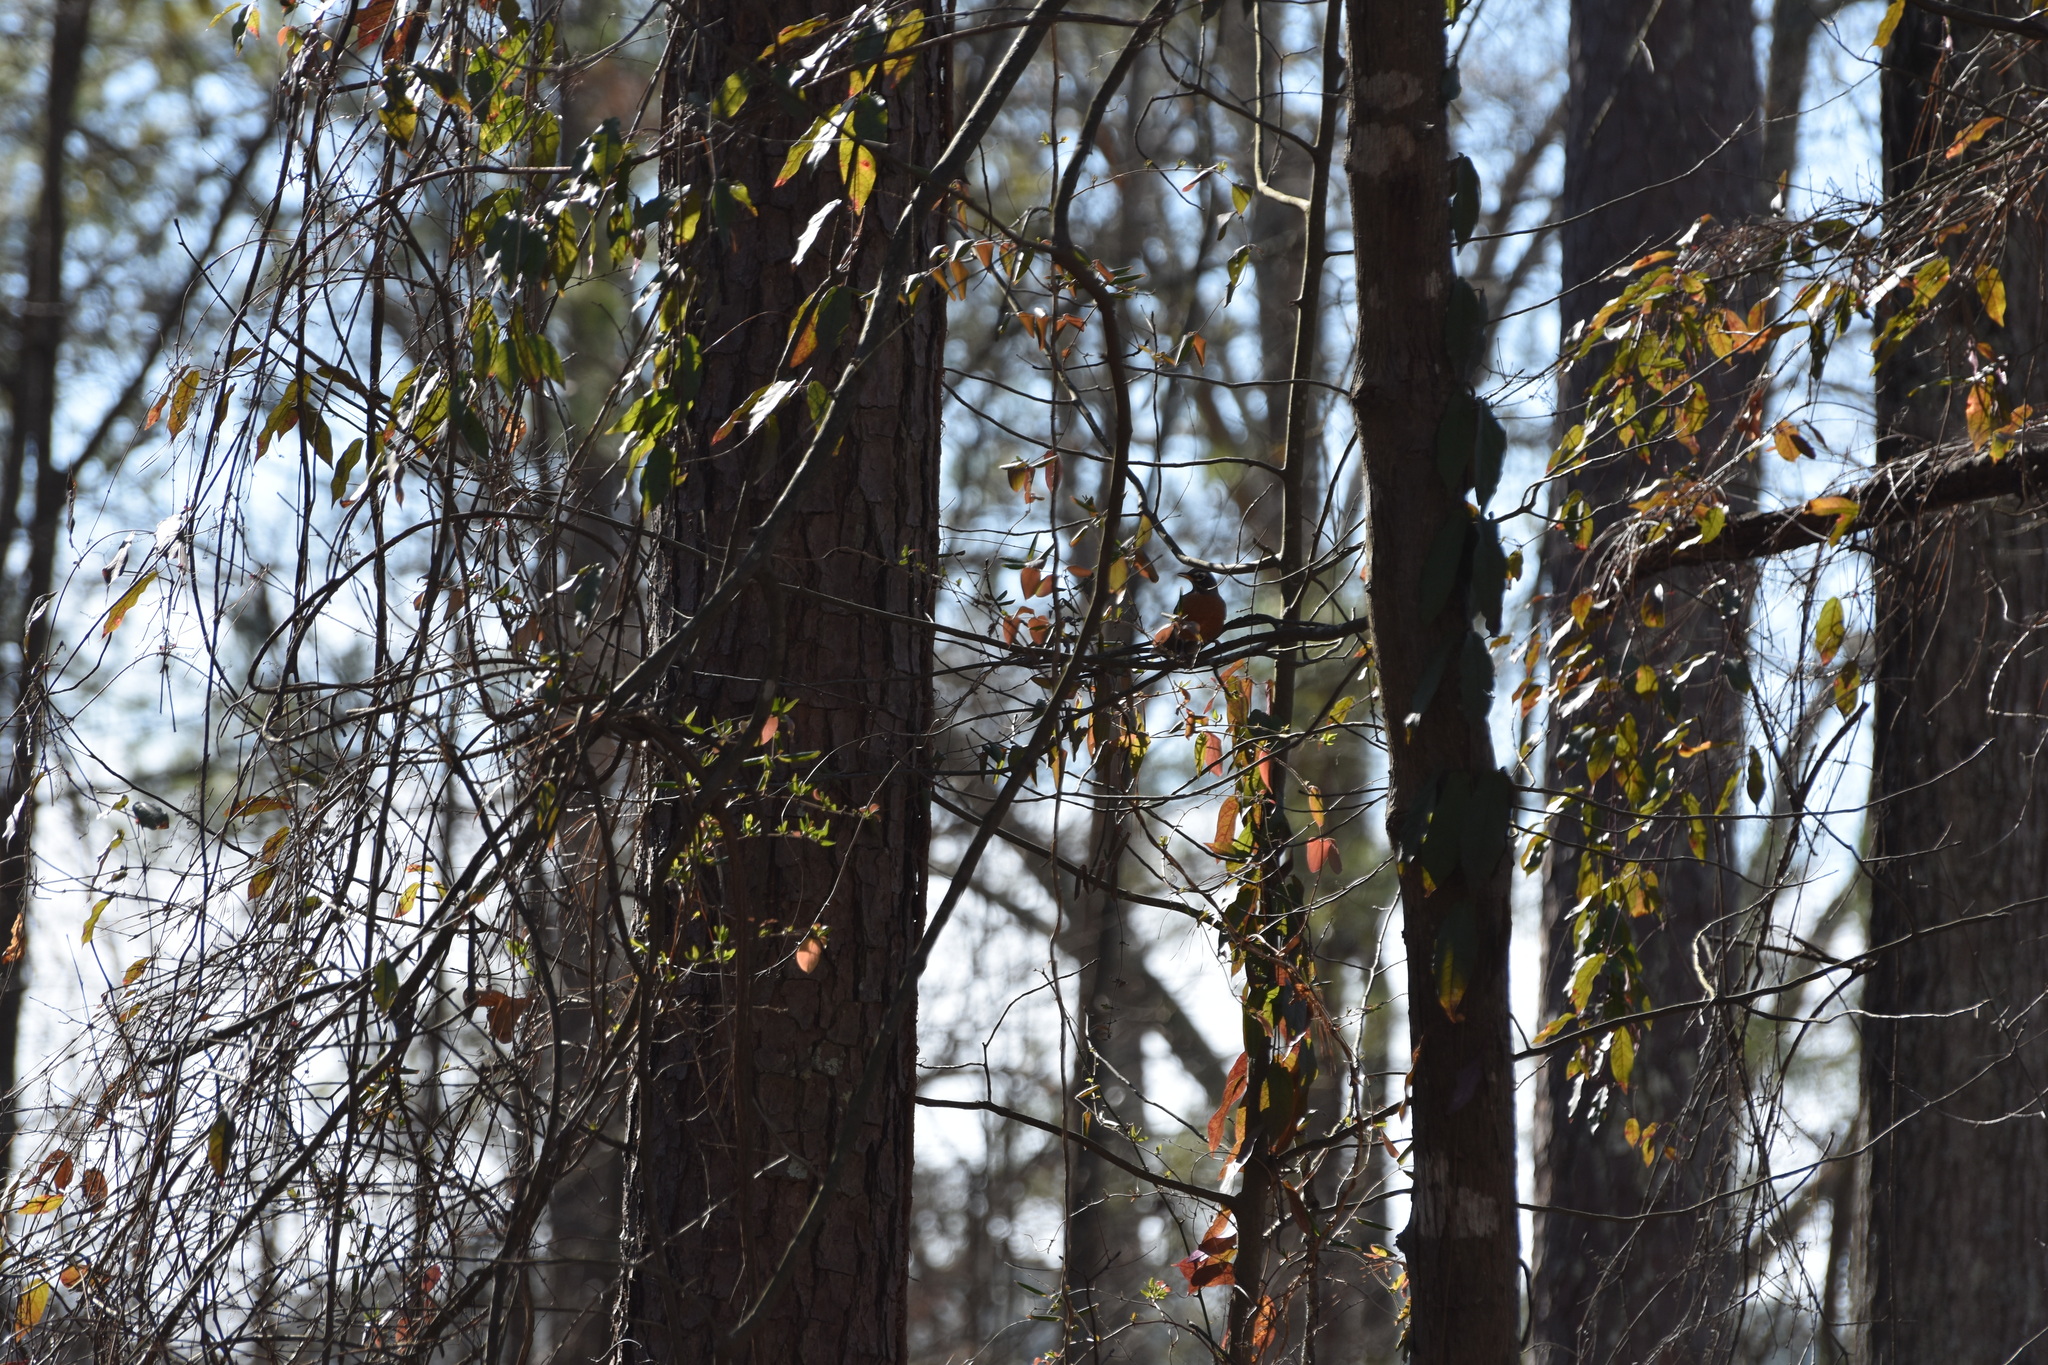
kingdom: Animalia
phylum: Chordata
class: Aves
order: Passeriformes
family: Turdidae
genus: Turdus
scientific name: Turdus migratorius
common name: American robin
